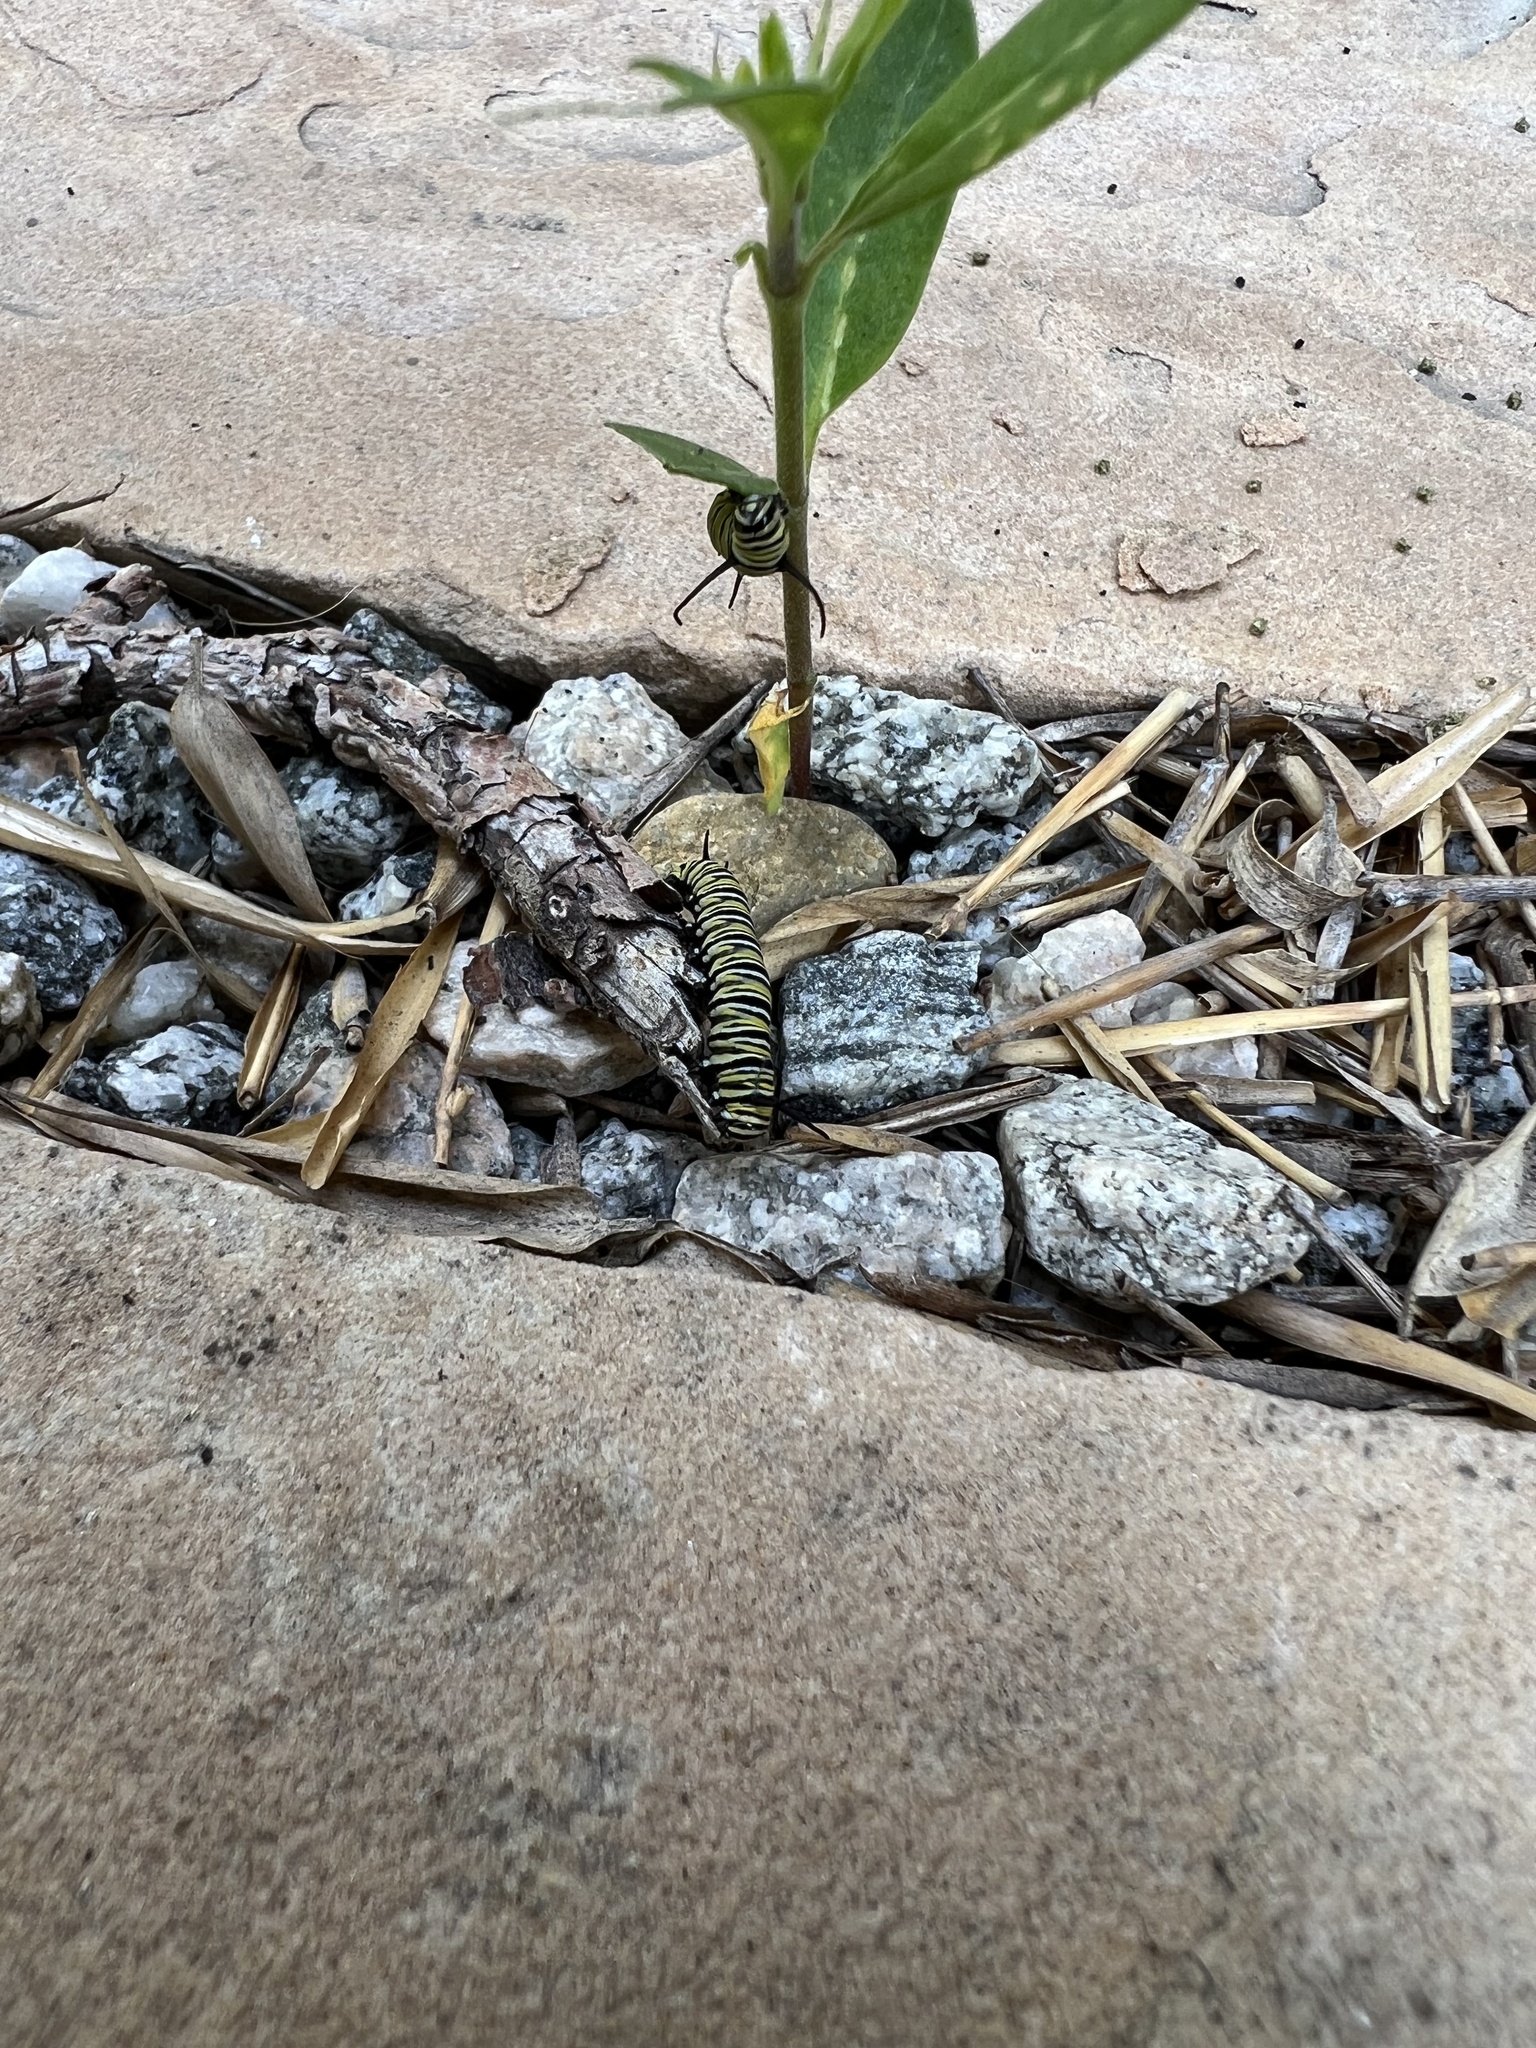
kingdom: Animalia
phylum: Arthropoda
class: Insecta
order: Lepidoptera
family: Nymphalidae
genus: Danaus
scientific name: Danaus plexippus
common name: Monarch
